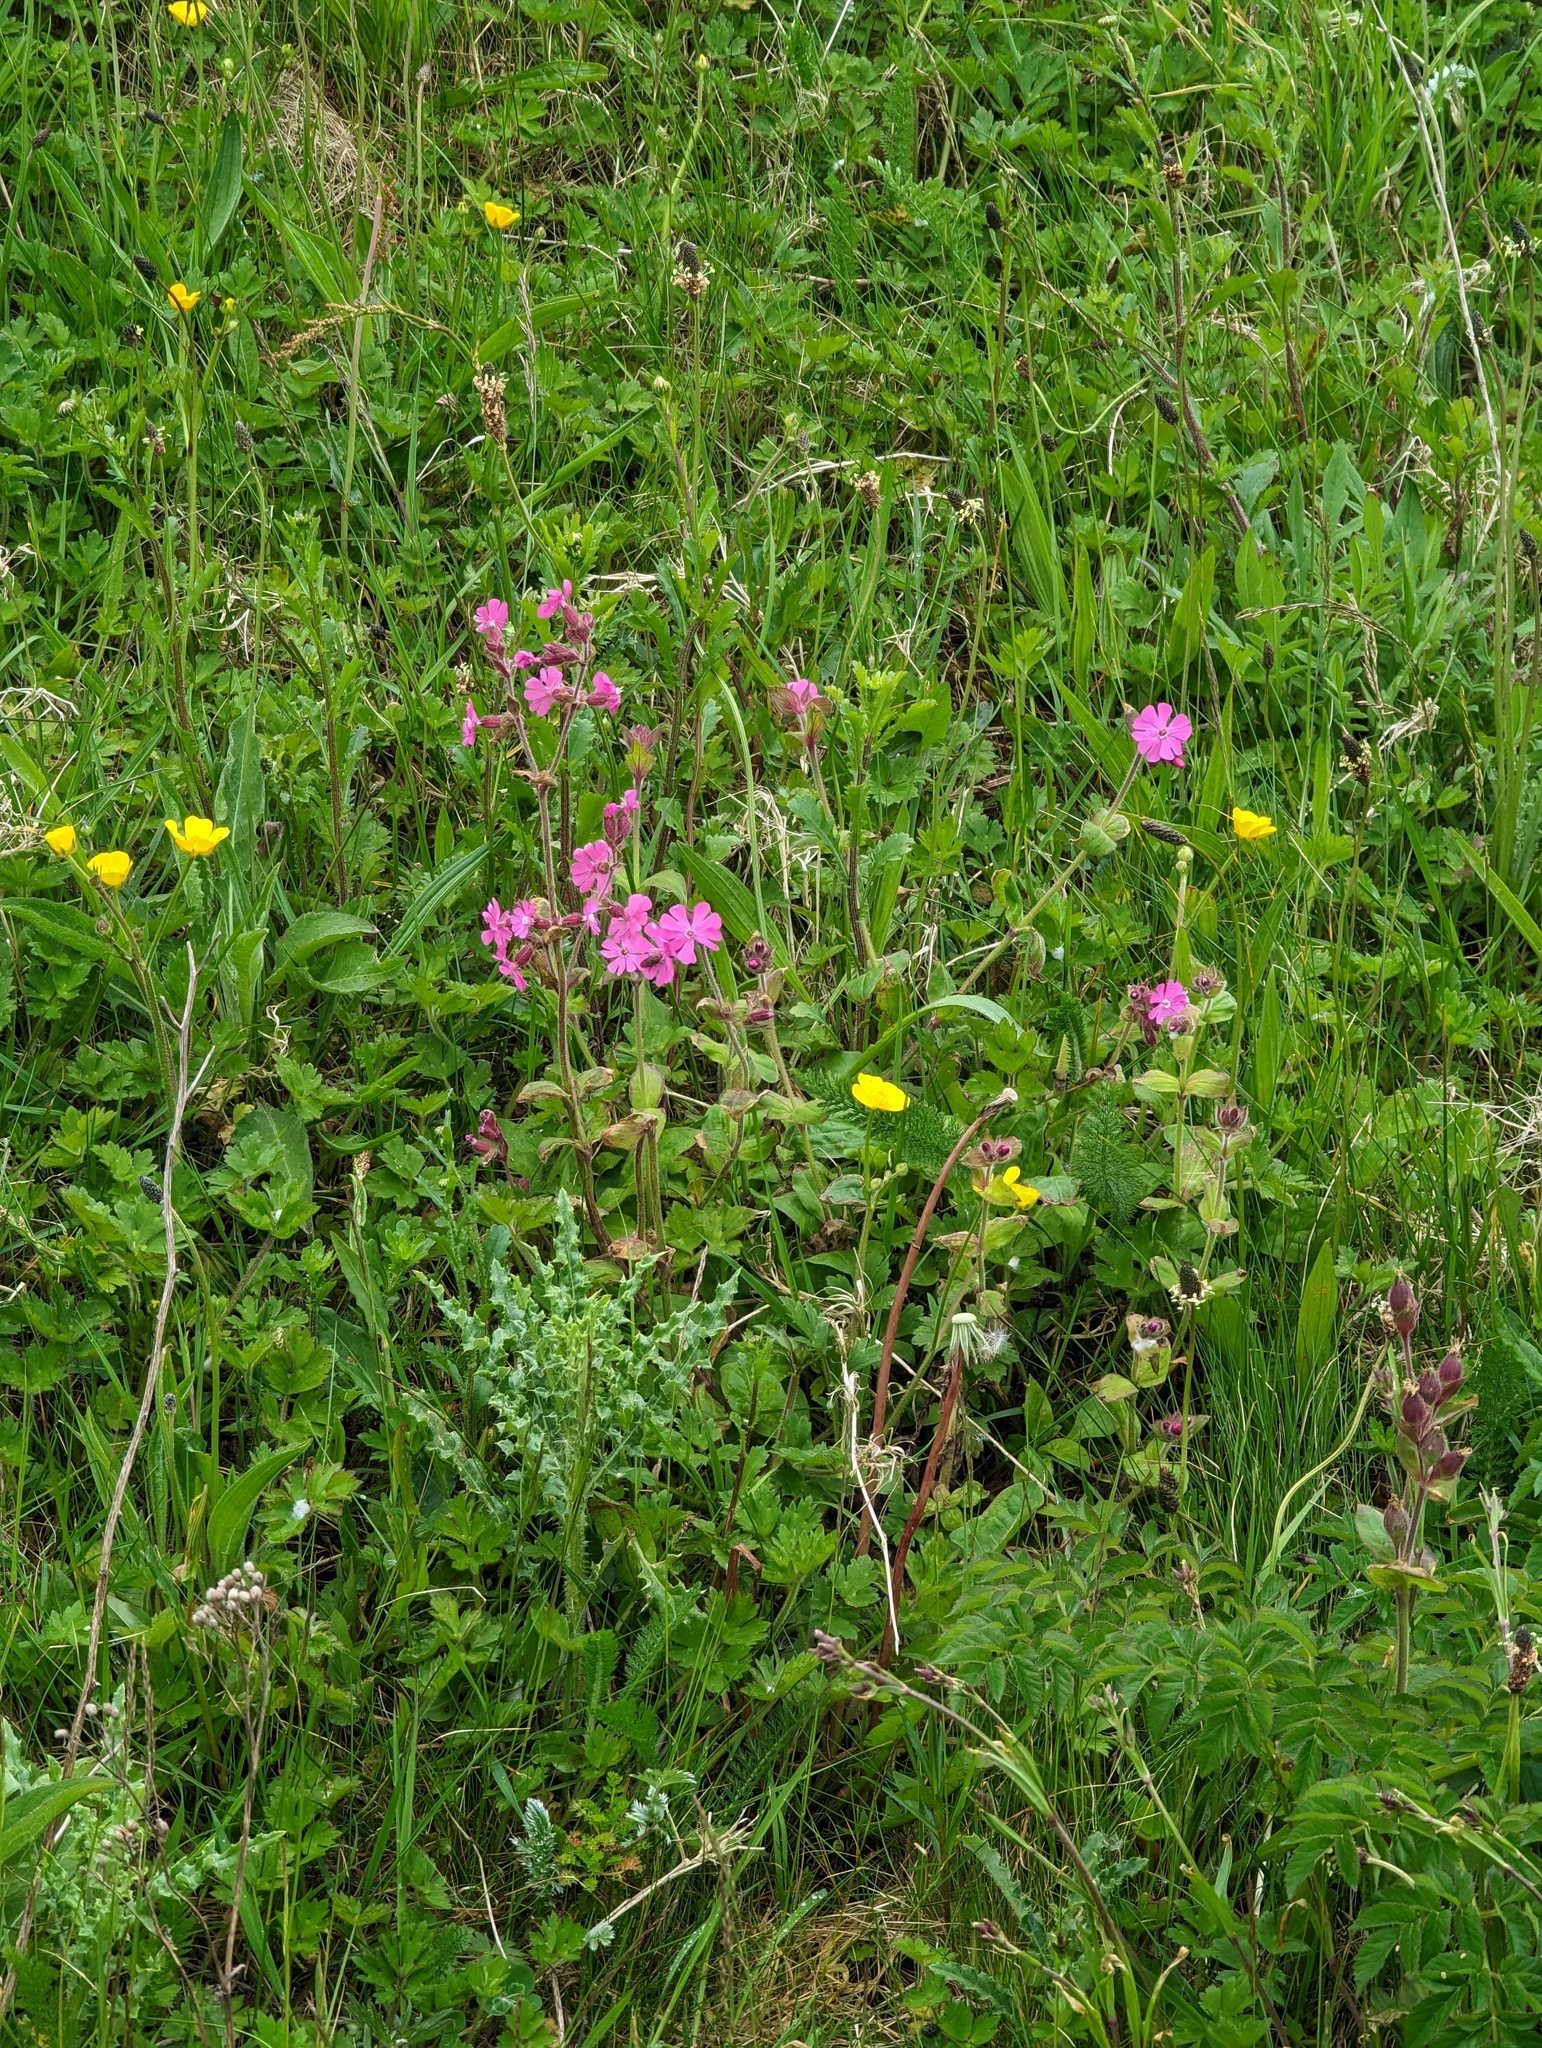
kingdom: Plantae
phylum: Tracheophyta
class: Magnoliopsida
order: Caryophyllales
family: Caryophyllaceae
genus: Silene
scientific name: Silene dioica
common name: Red campion
